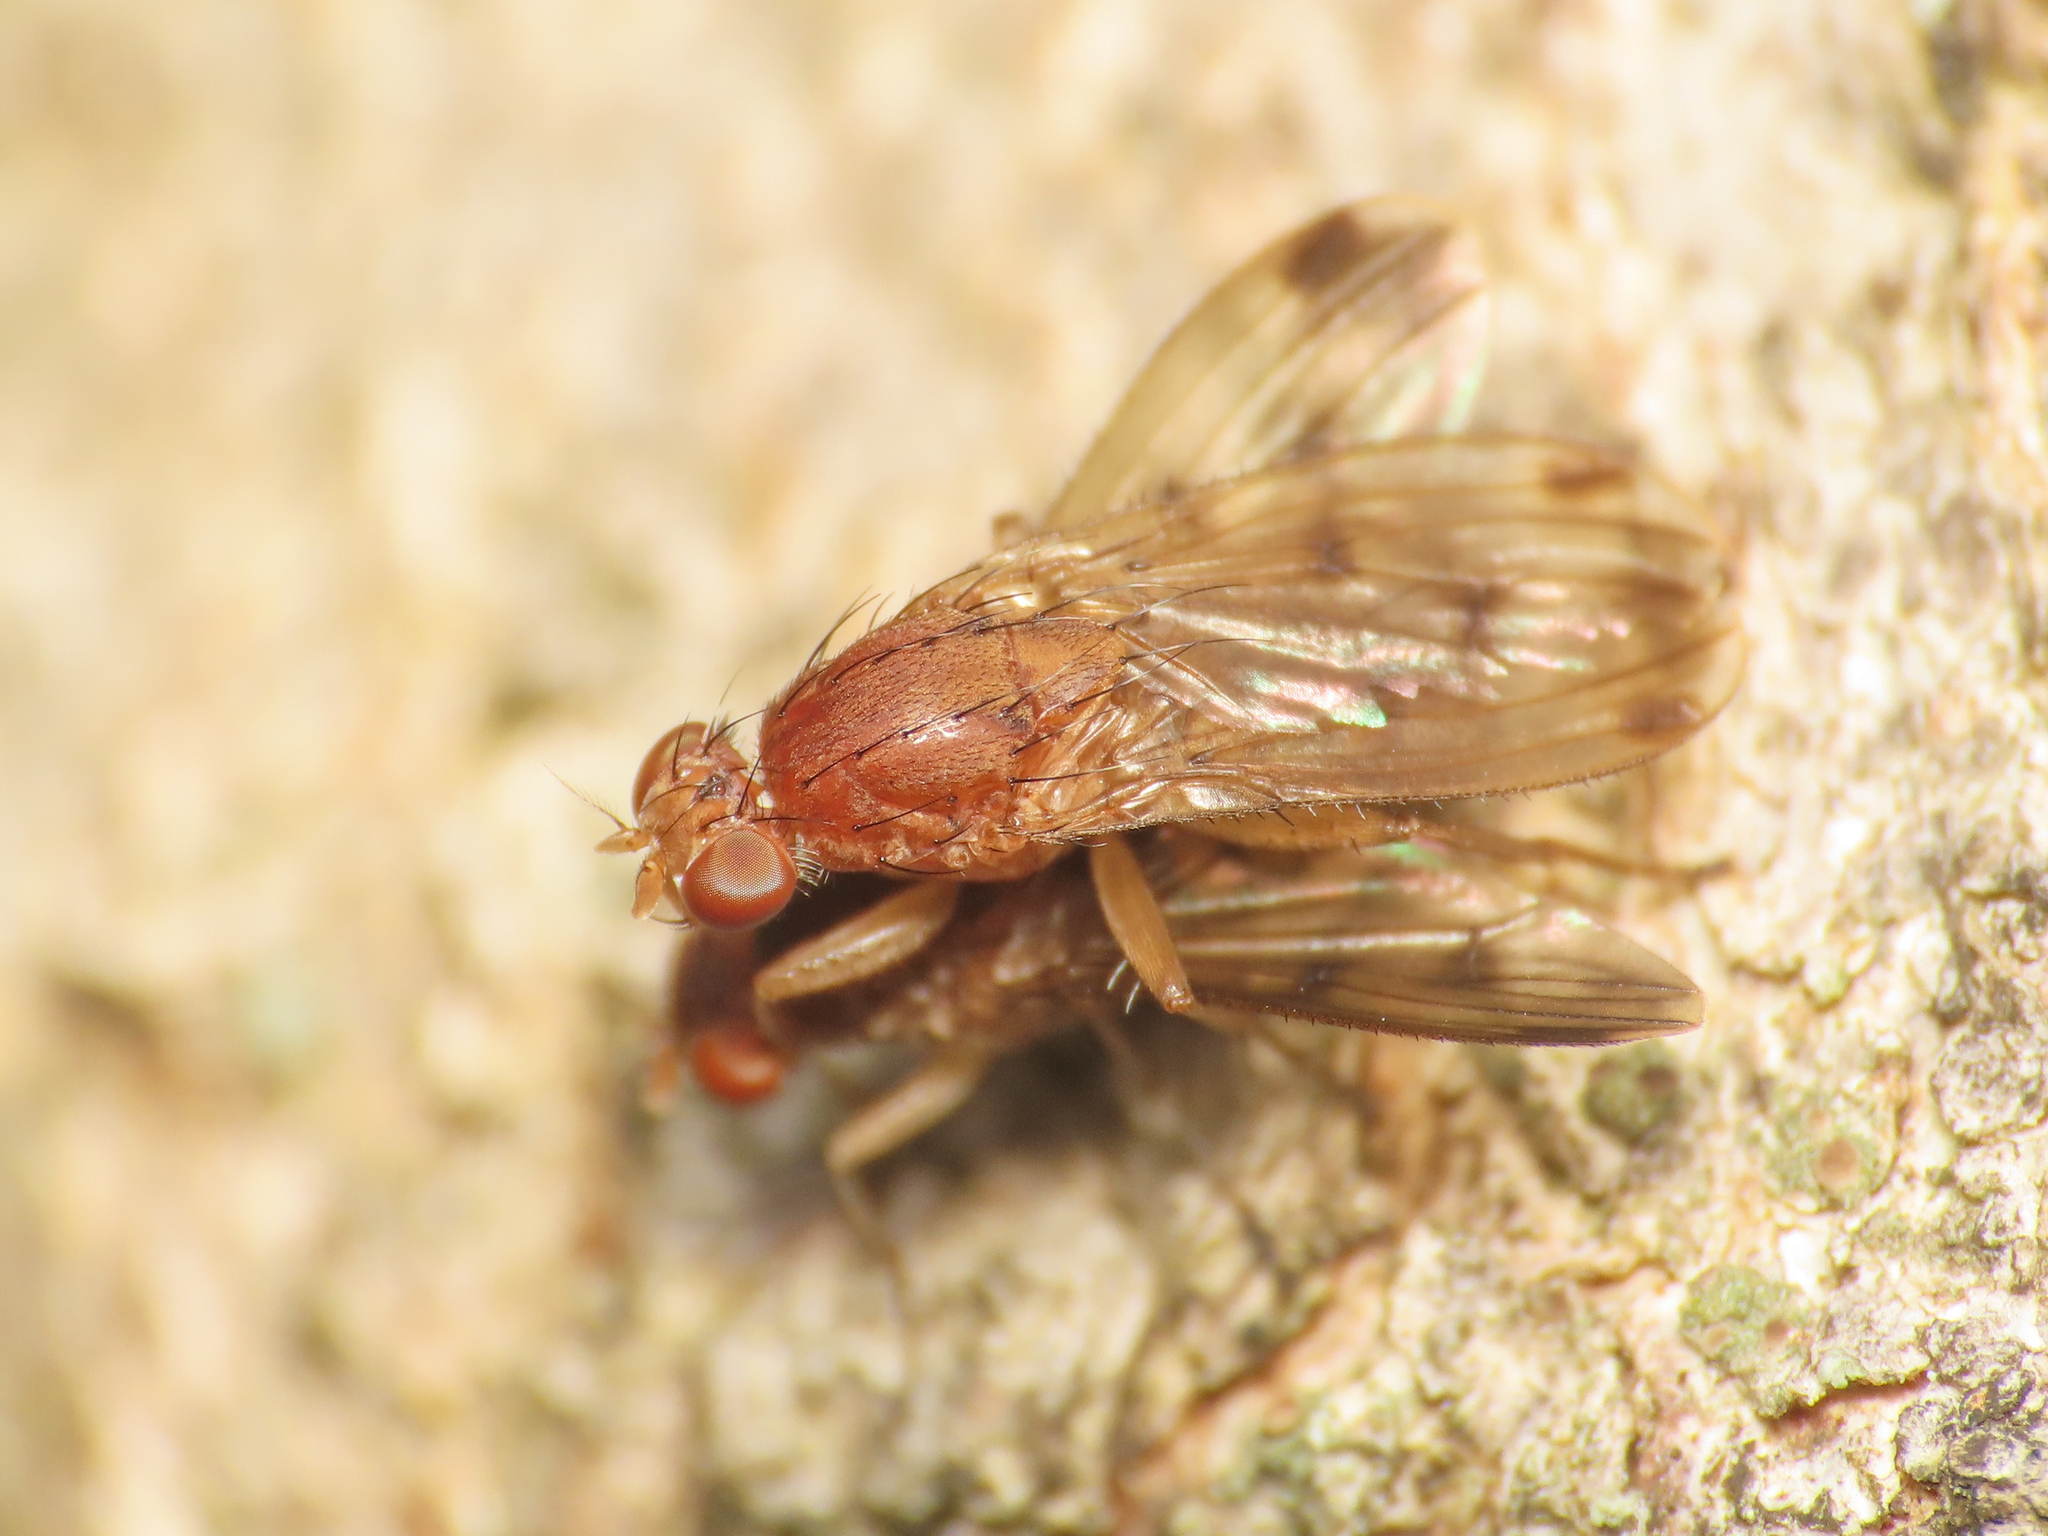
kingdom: Animalia
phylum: Arthropoda
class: Insecta
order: Diptera
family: Heleomyzidae
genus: Suillia
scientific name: Suillia variegata
